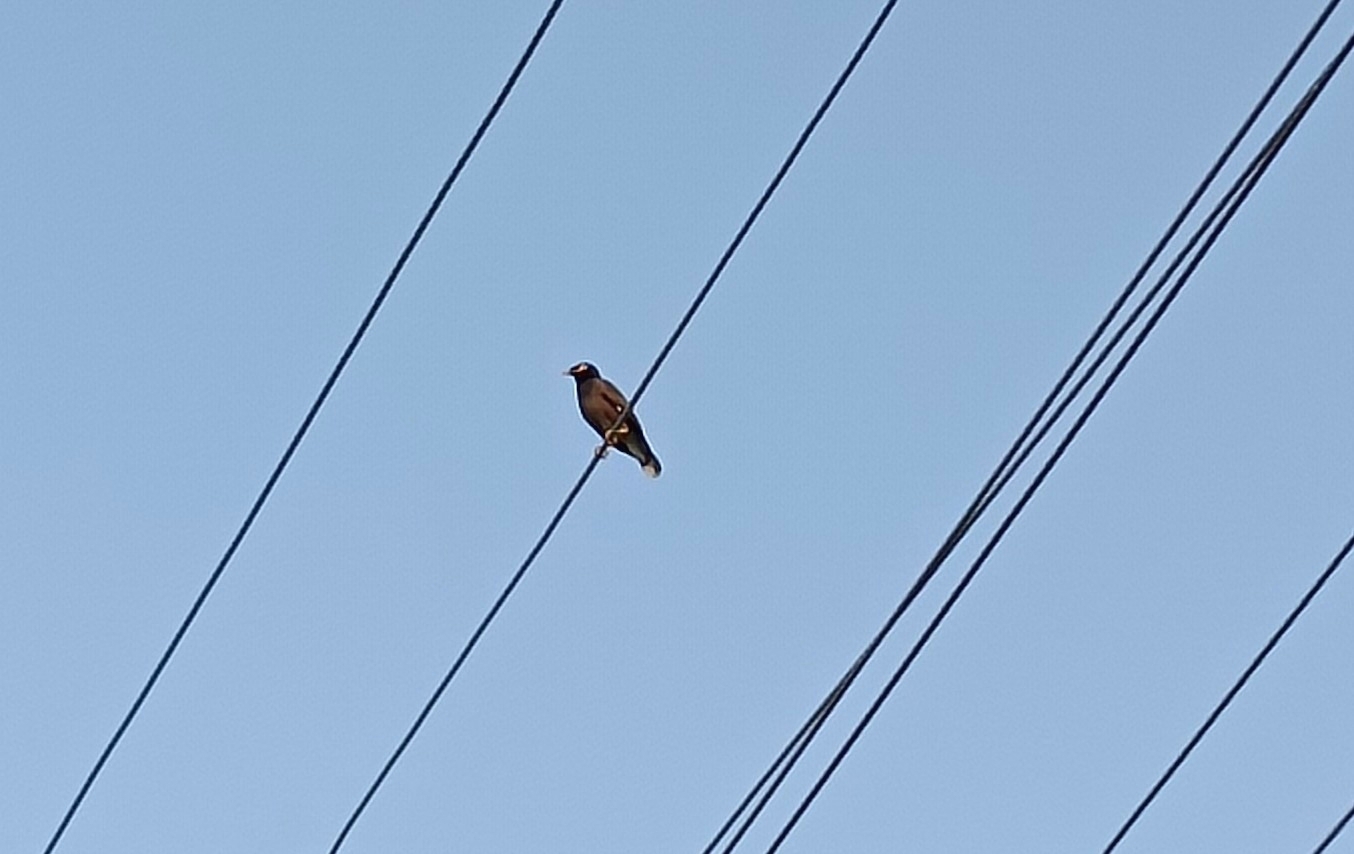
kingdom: Animalia
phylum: Chordata
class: Aves
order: Passeriformes
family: Sturnidae
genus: Acridotheres
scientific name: Acridotheres tristis
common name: Common myna
